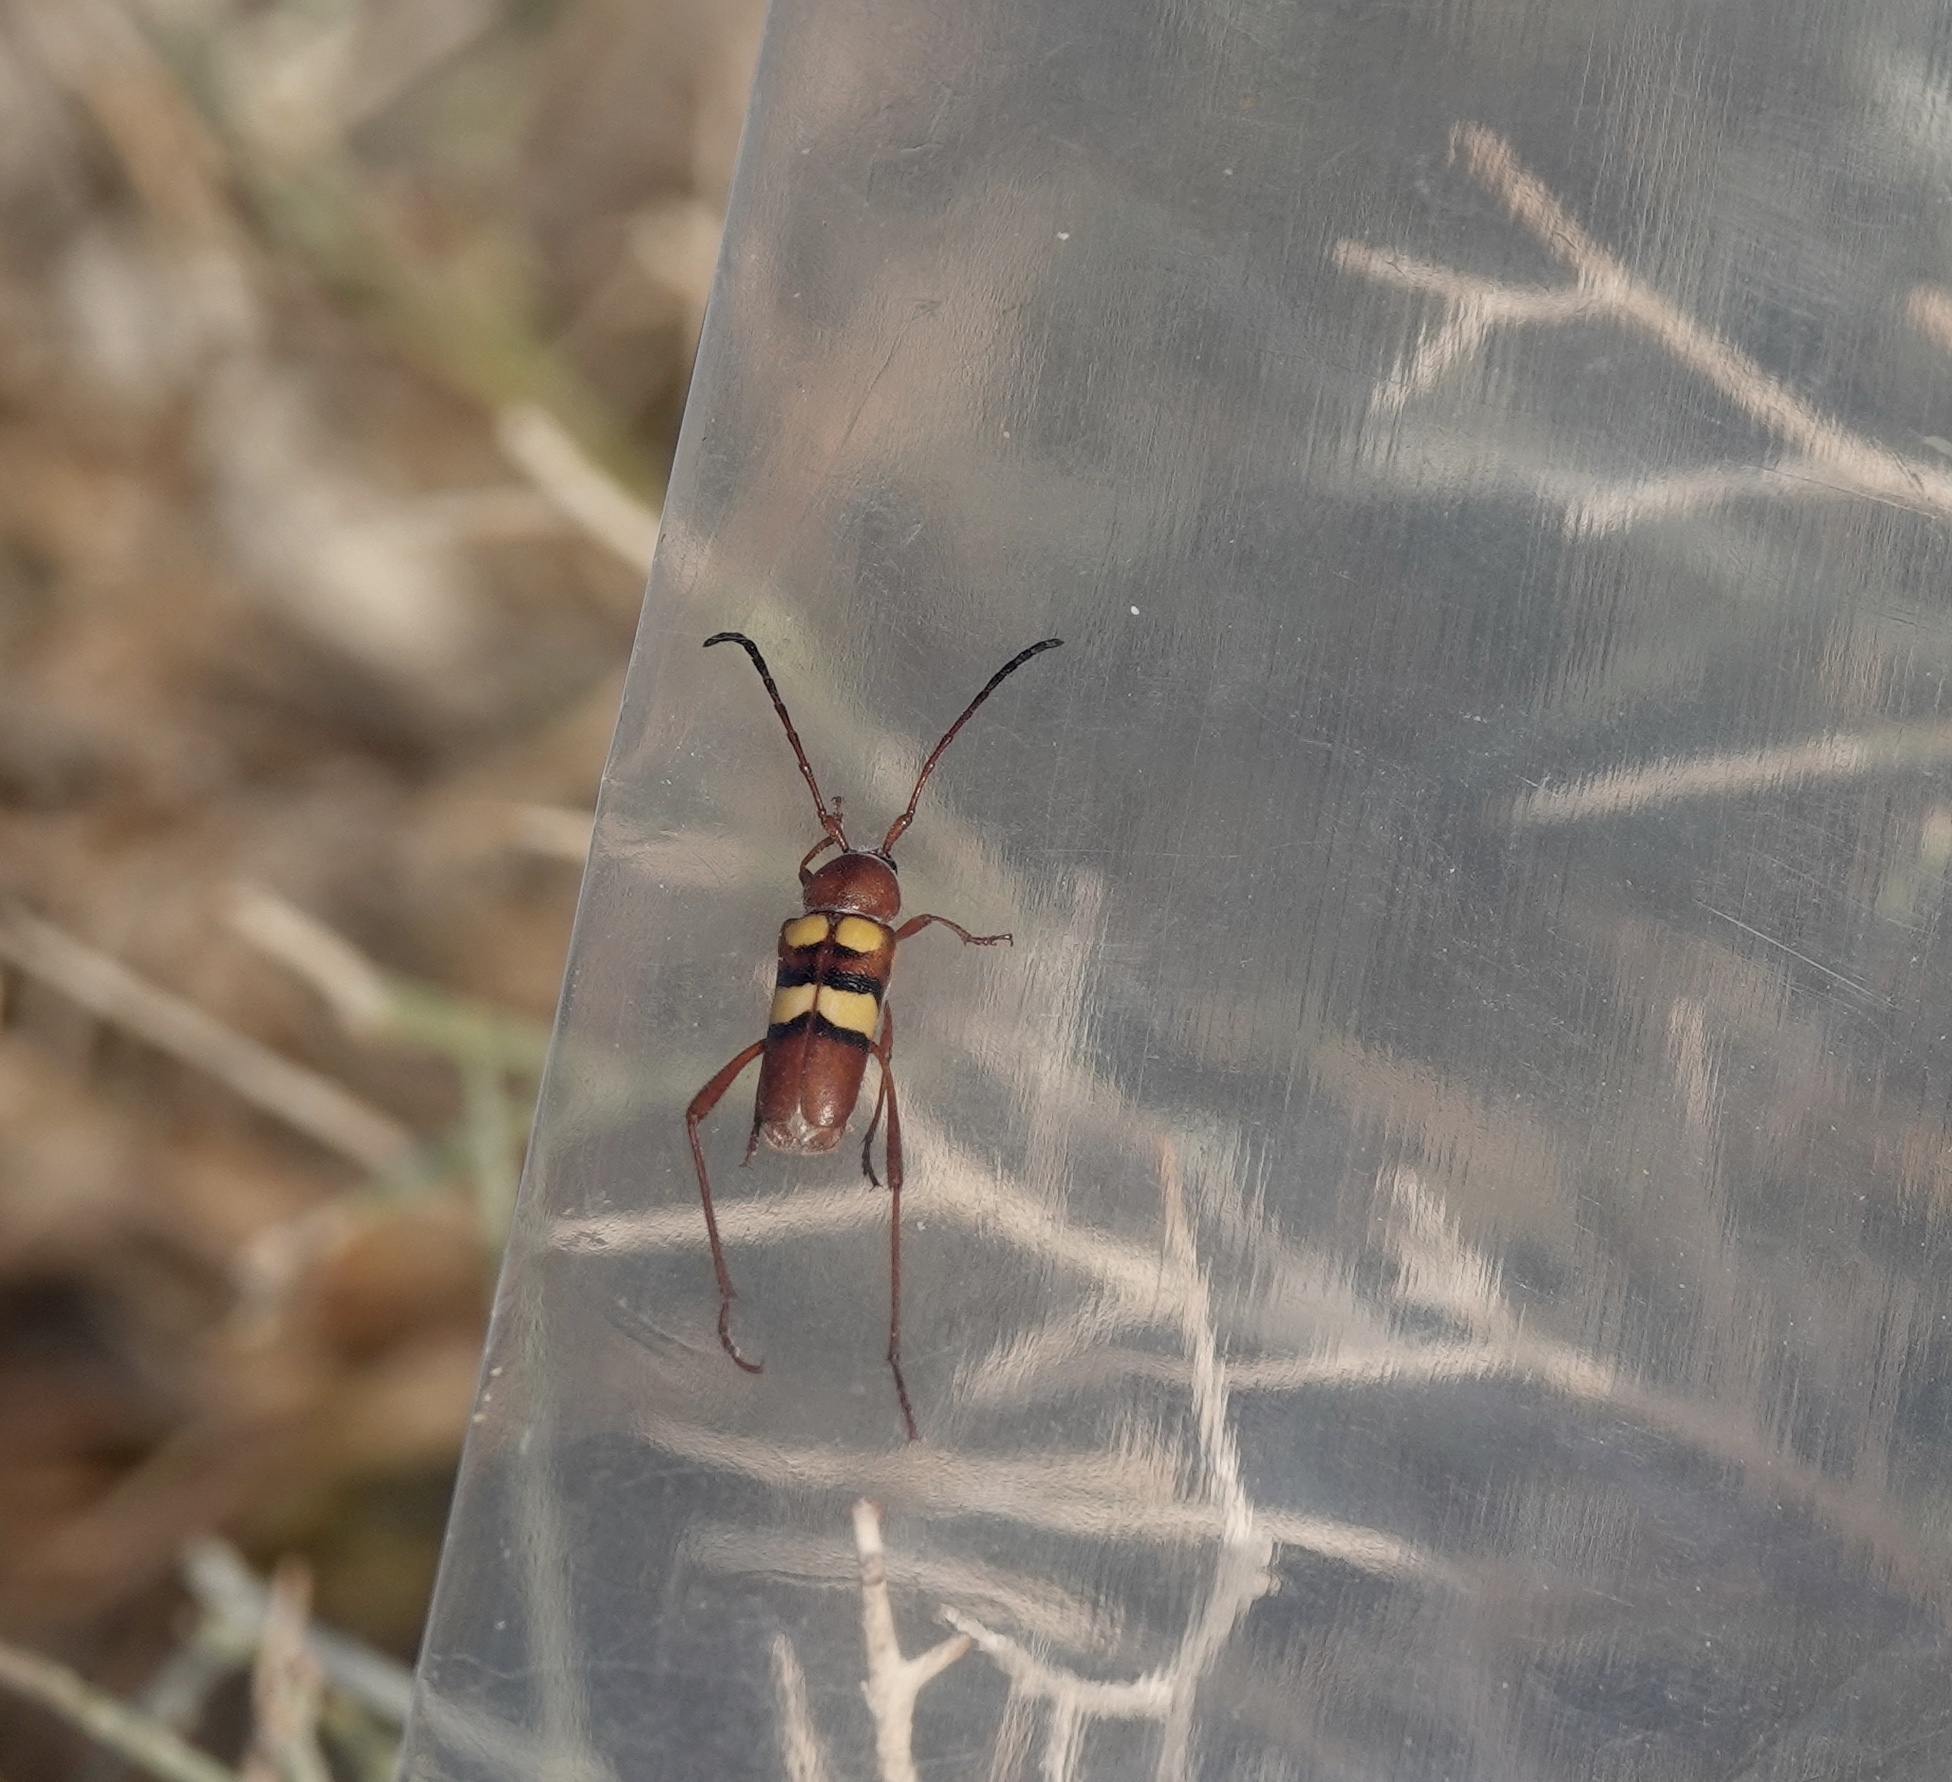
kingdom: Animalia
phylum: Arthropoda
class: Insecta
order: Coleoptera
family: Cerambycidae
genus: Aethecerinus
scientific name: Aethecerinus latecinctus
